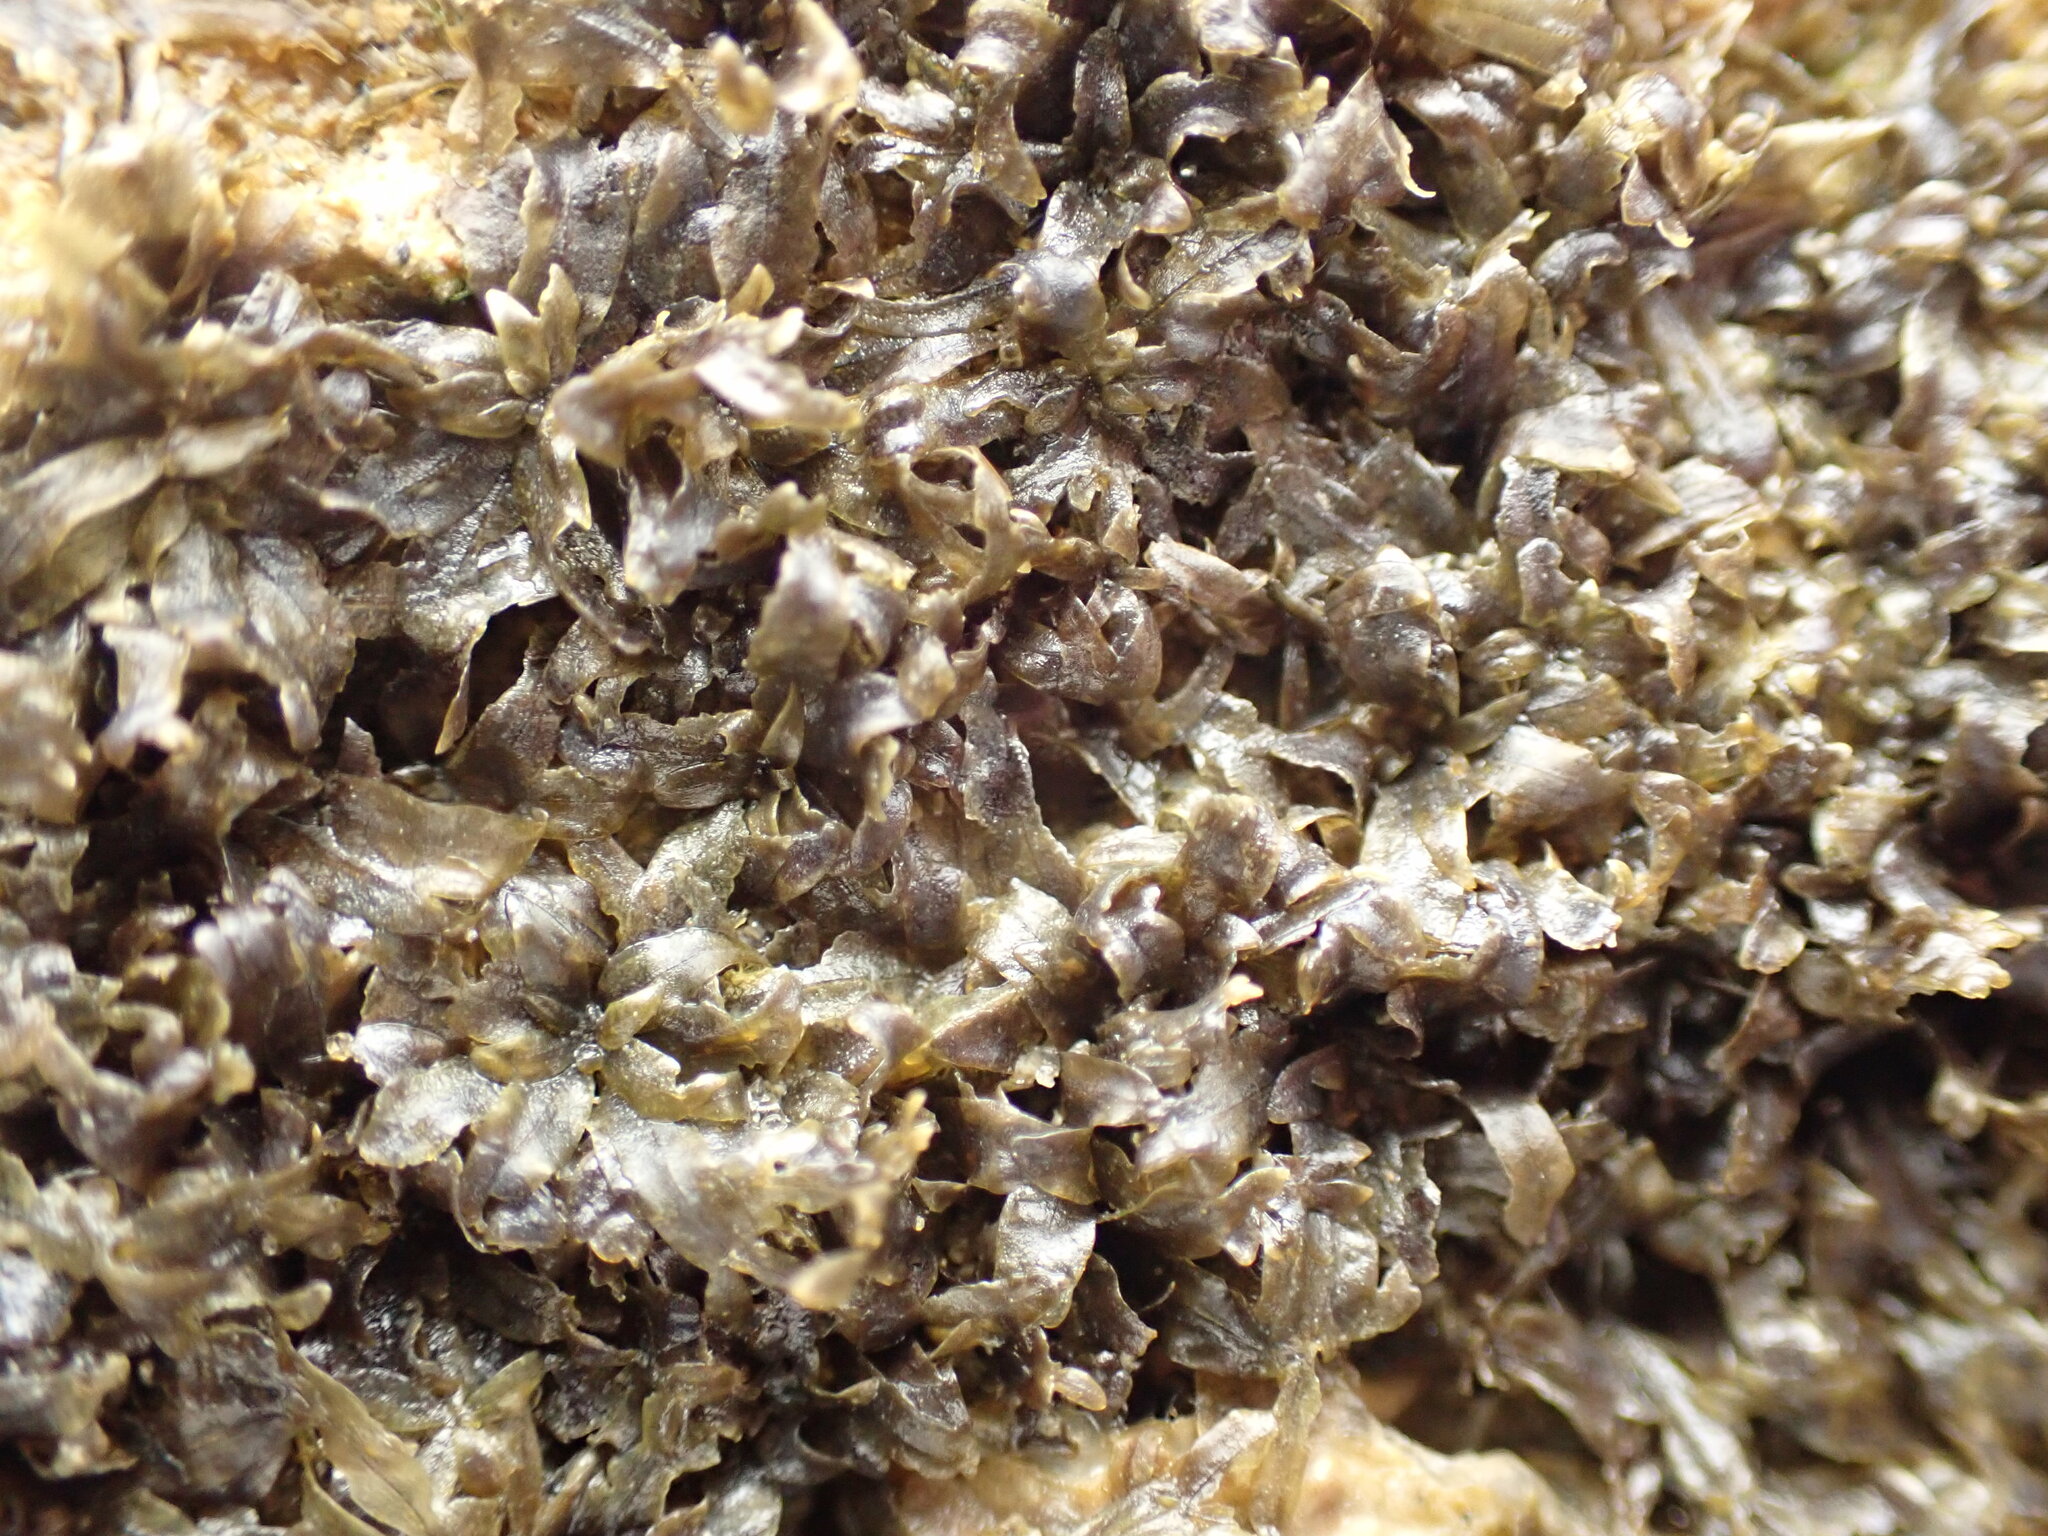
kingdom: Plantae
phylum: Rhodophyta
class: Florideophyceae
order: Ceramiales
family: Delesseriaceae
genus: Caloglossa
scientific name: Caloglossa vieillardii
